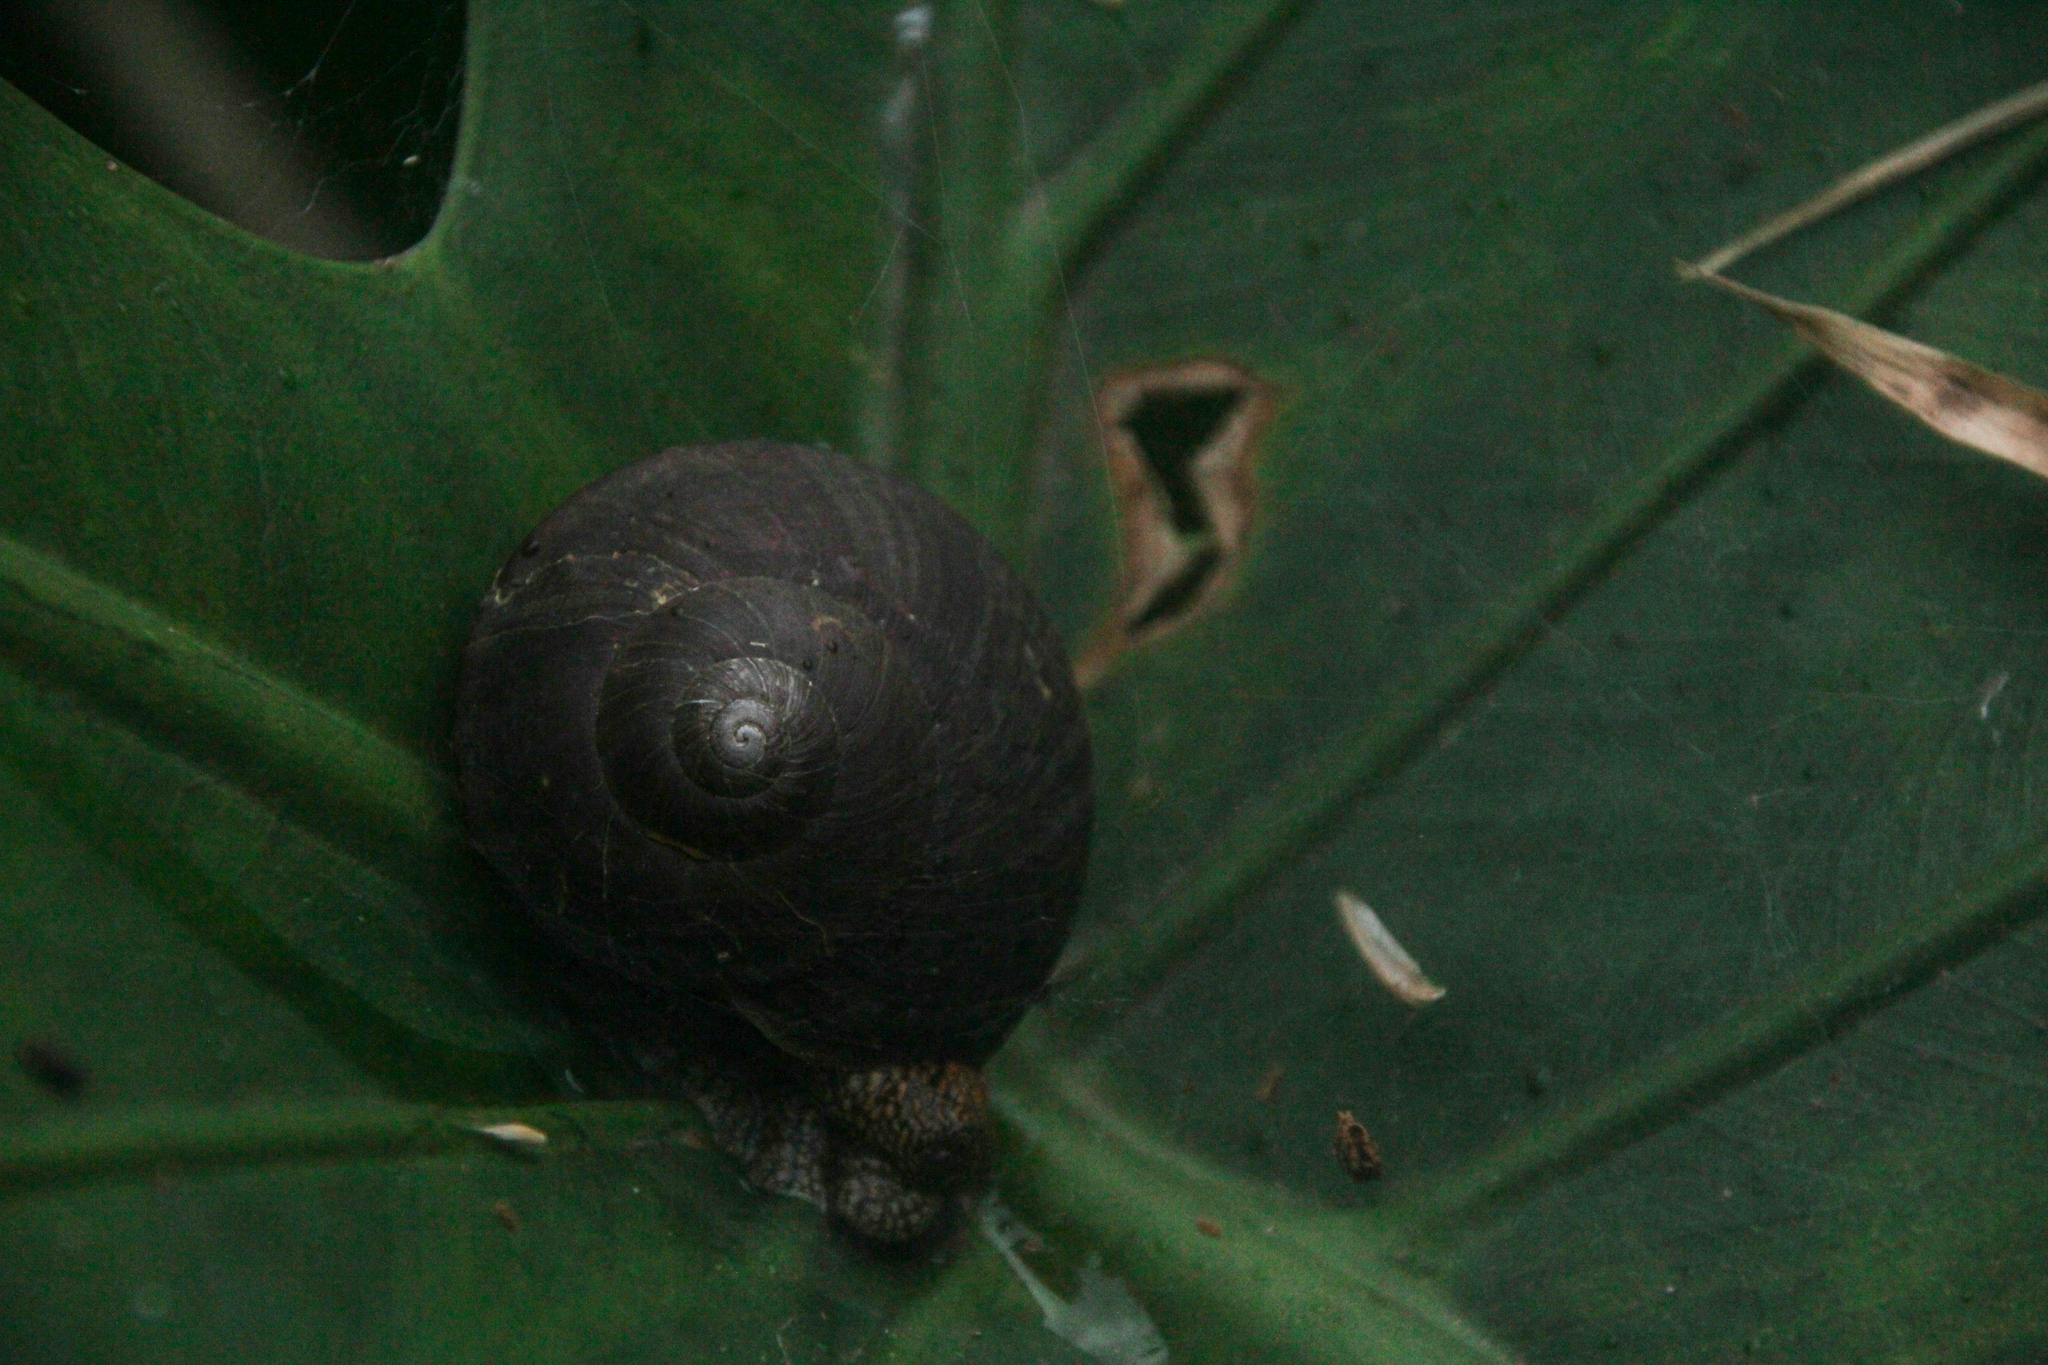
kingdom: Animalia
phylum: Mollusca
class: Gastropoda
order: Stylommatophora
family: Camaenidae
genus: Nesiohelix
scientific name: Nesiohelix swinhoei
